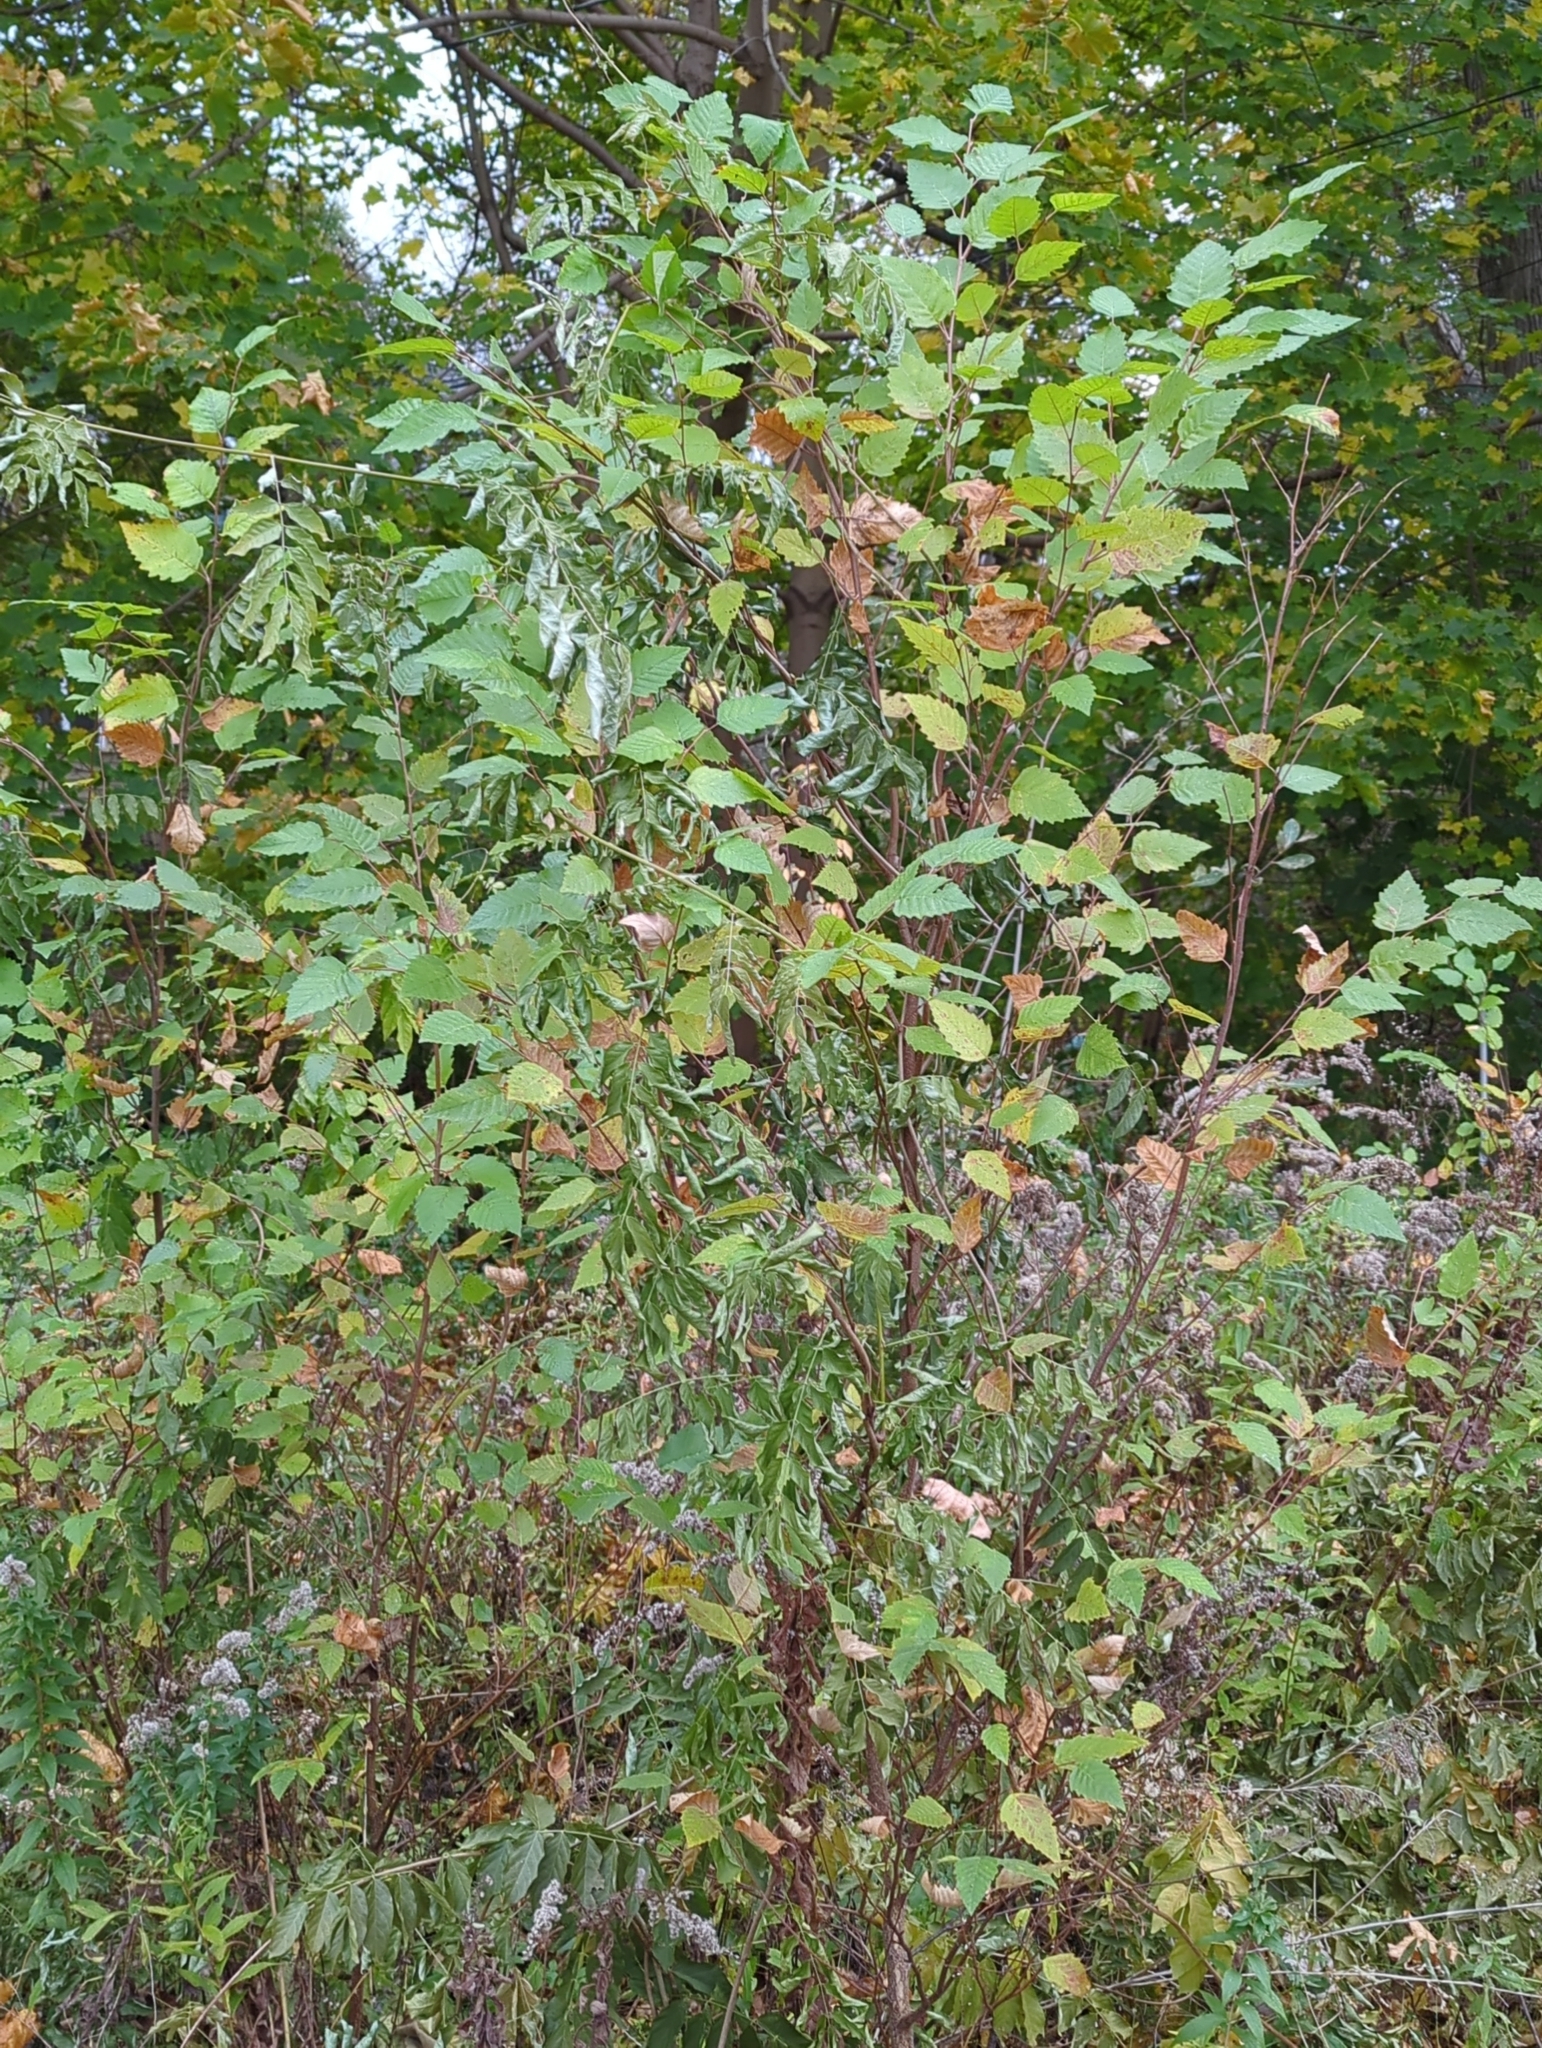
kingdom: Plantae
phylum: Tracheophyta
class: Magnoliopsida
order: Fagales
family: Betulaceae
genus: Betula
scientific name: Betula nigra
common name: Black birch
